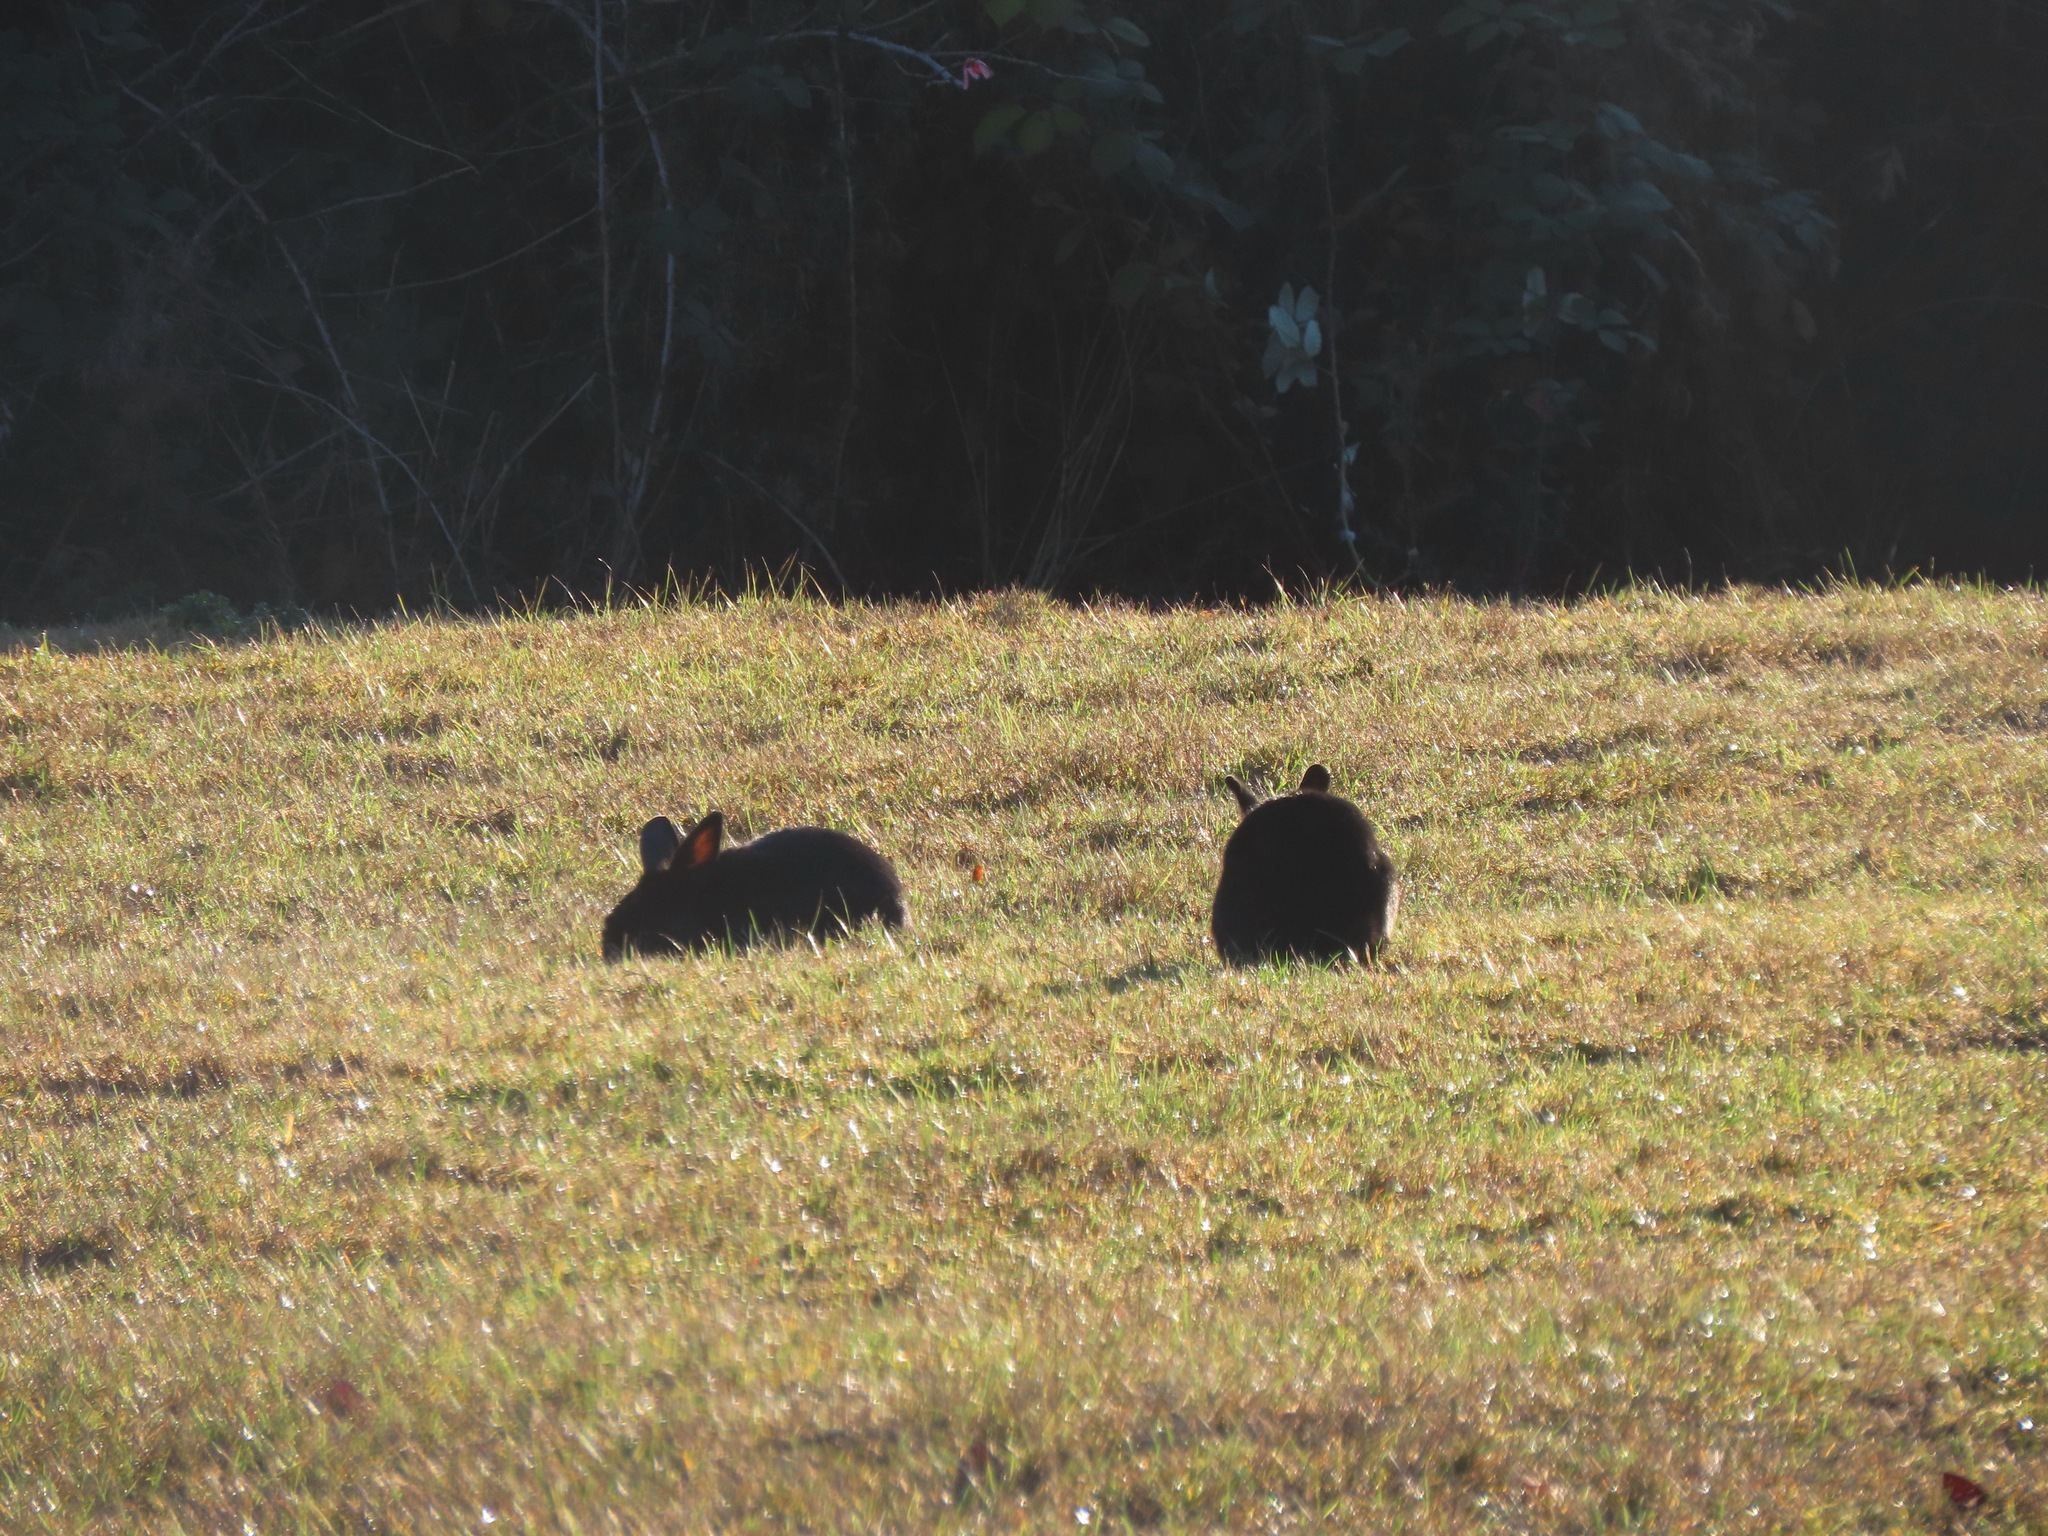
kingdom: Animalia
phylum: Chordata
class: Mammalia
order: Lagomorpha
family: Leporidae
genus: Oryctolagus
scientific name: Oryctolagus cuniculus
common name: European rabbit
